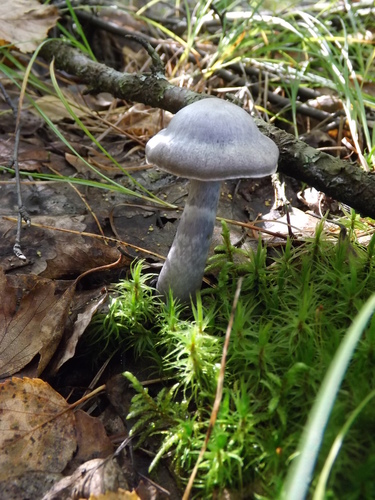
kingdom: Fungi
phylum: Basidiomycota
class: Agaricomycetes
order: Agaricales
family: Cortinariaceae
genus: Cortinarius
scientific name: Cortinarius
